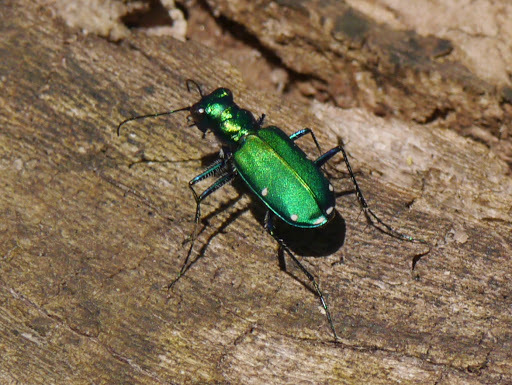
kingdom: Animalia
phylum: Arthropoda
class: Insecta
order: Coleoptera
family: Carabidae
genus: Cicindela
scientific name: Cicindela sexguttata
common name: Six-spotted tiger beetle
